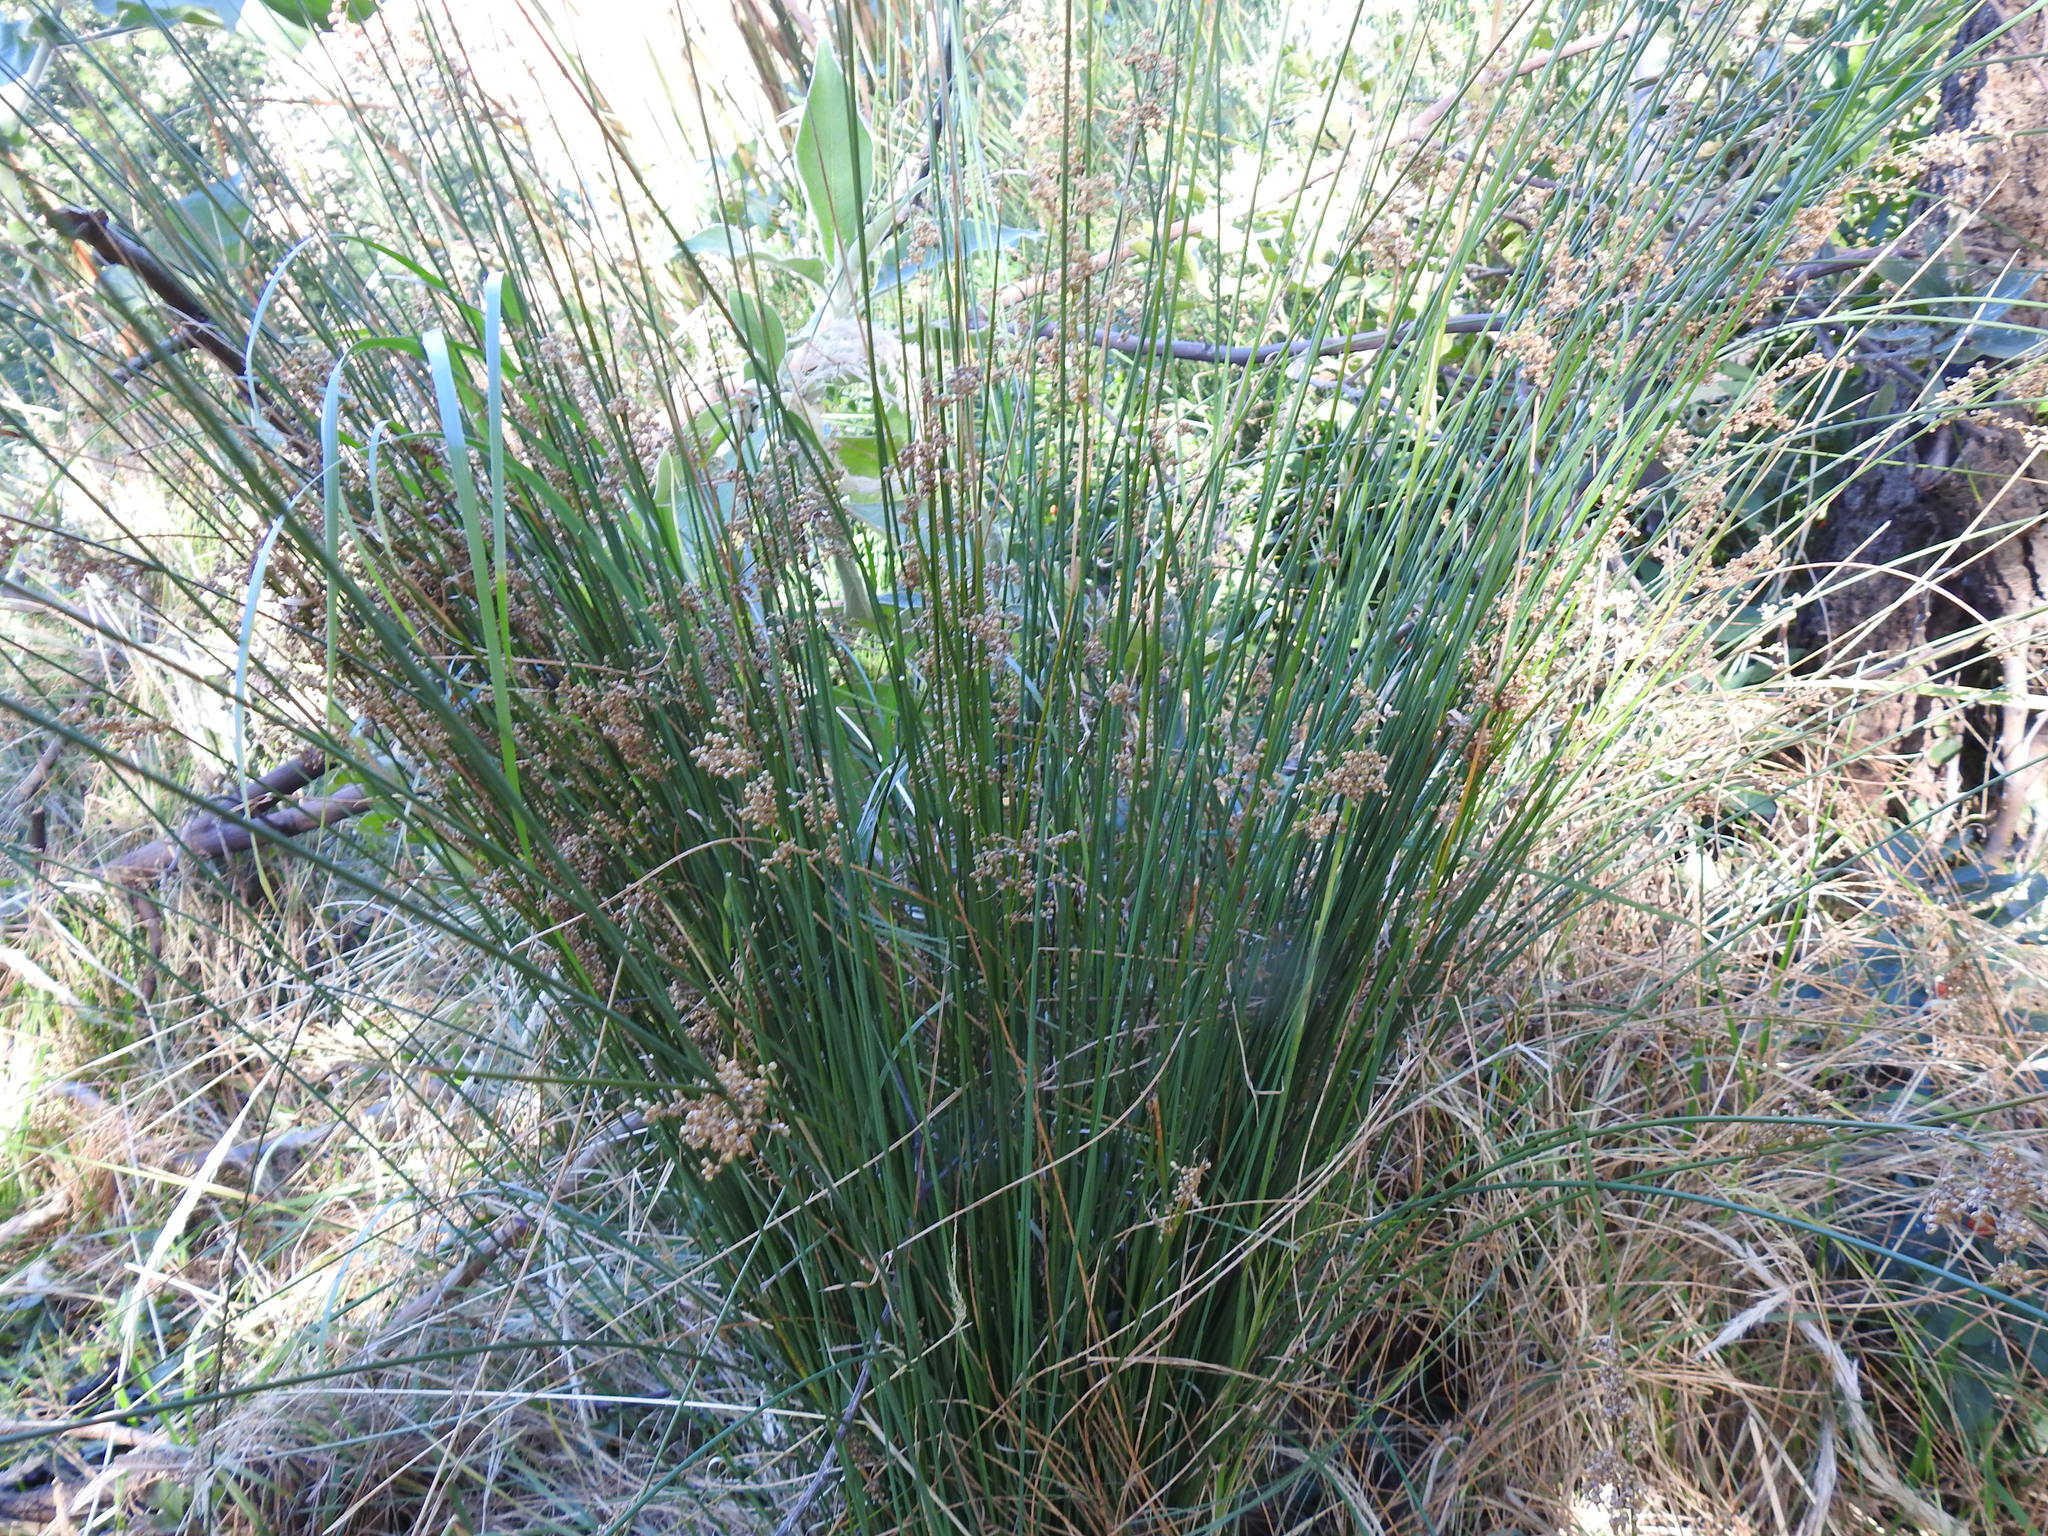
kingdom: Plantae
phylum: Tracheophyta
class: Liliopsida
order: Poales
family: Juncaceae
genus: Juncus
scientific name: Juncus effusus
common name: Soft rush
